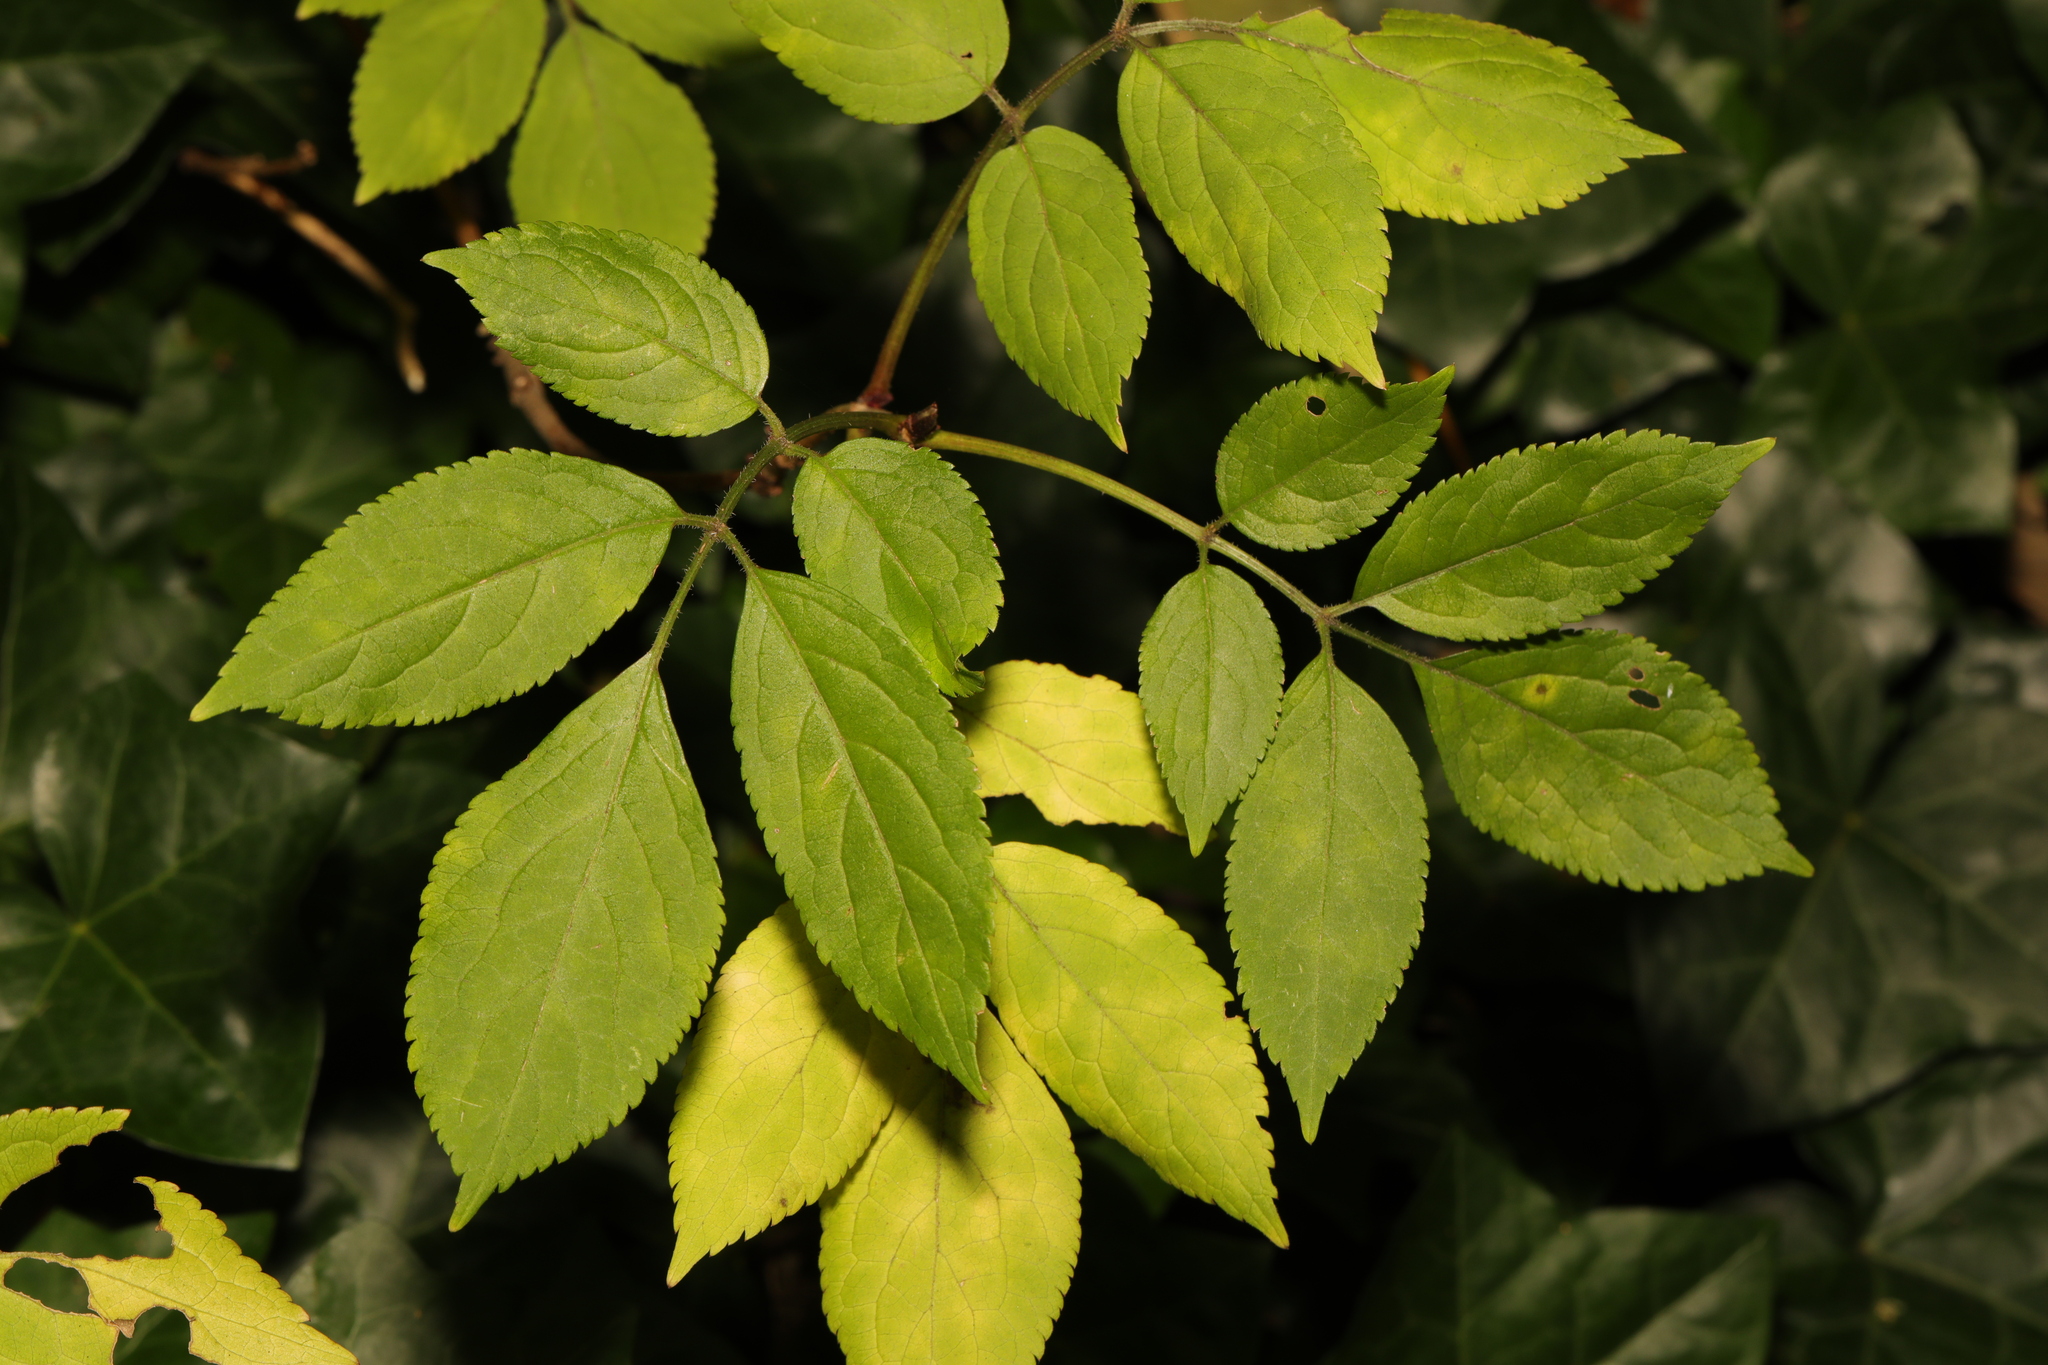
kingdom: Plantae
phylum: Tracheophyta
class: Magnoliopsida
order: Dipsacales
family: Viburnaceae
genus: Sambucus
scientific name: Sambucus nigra
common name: Elder
